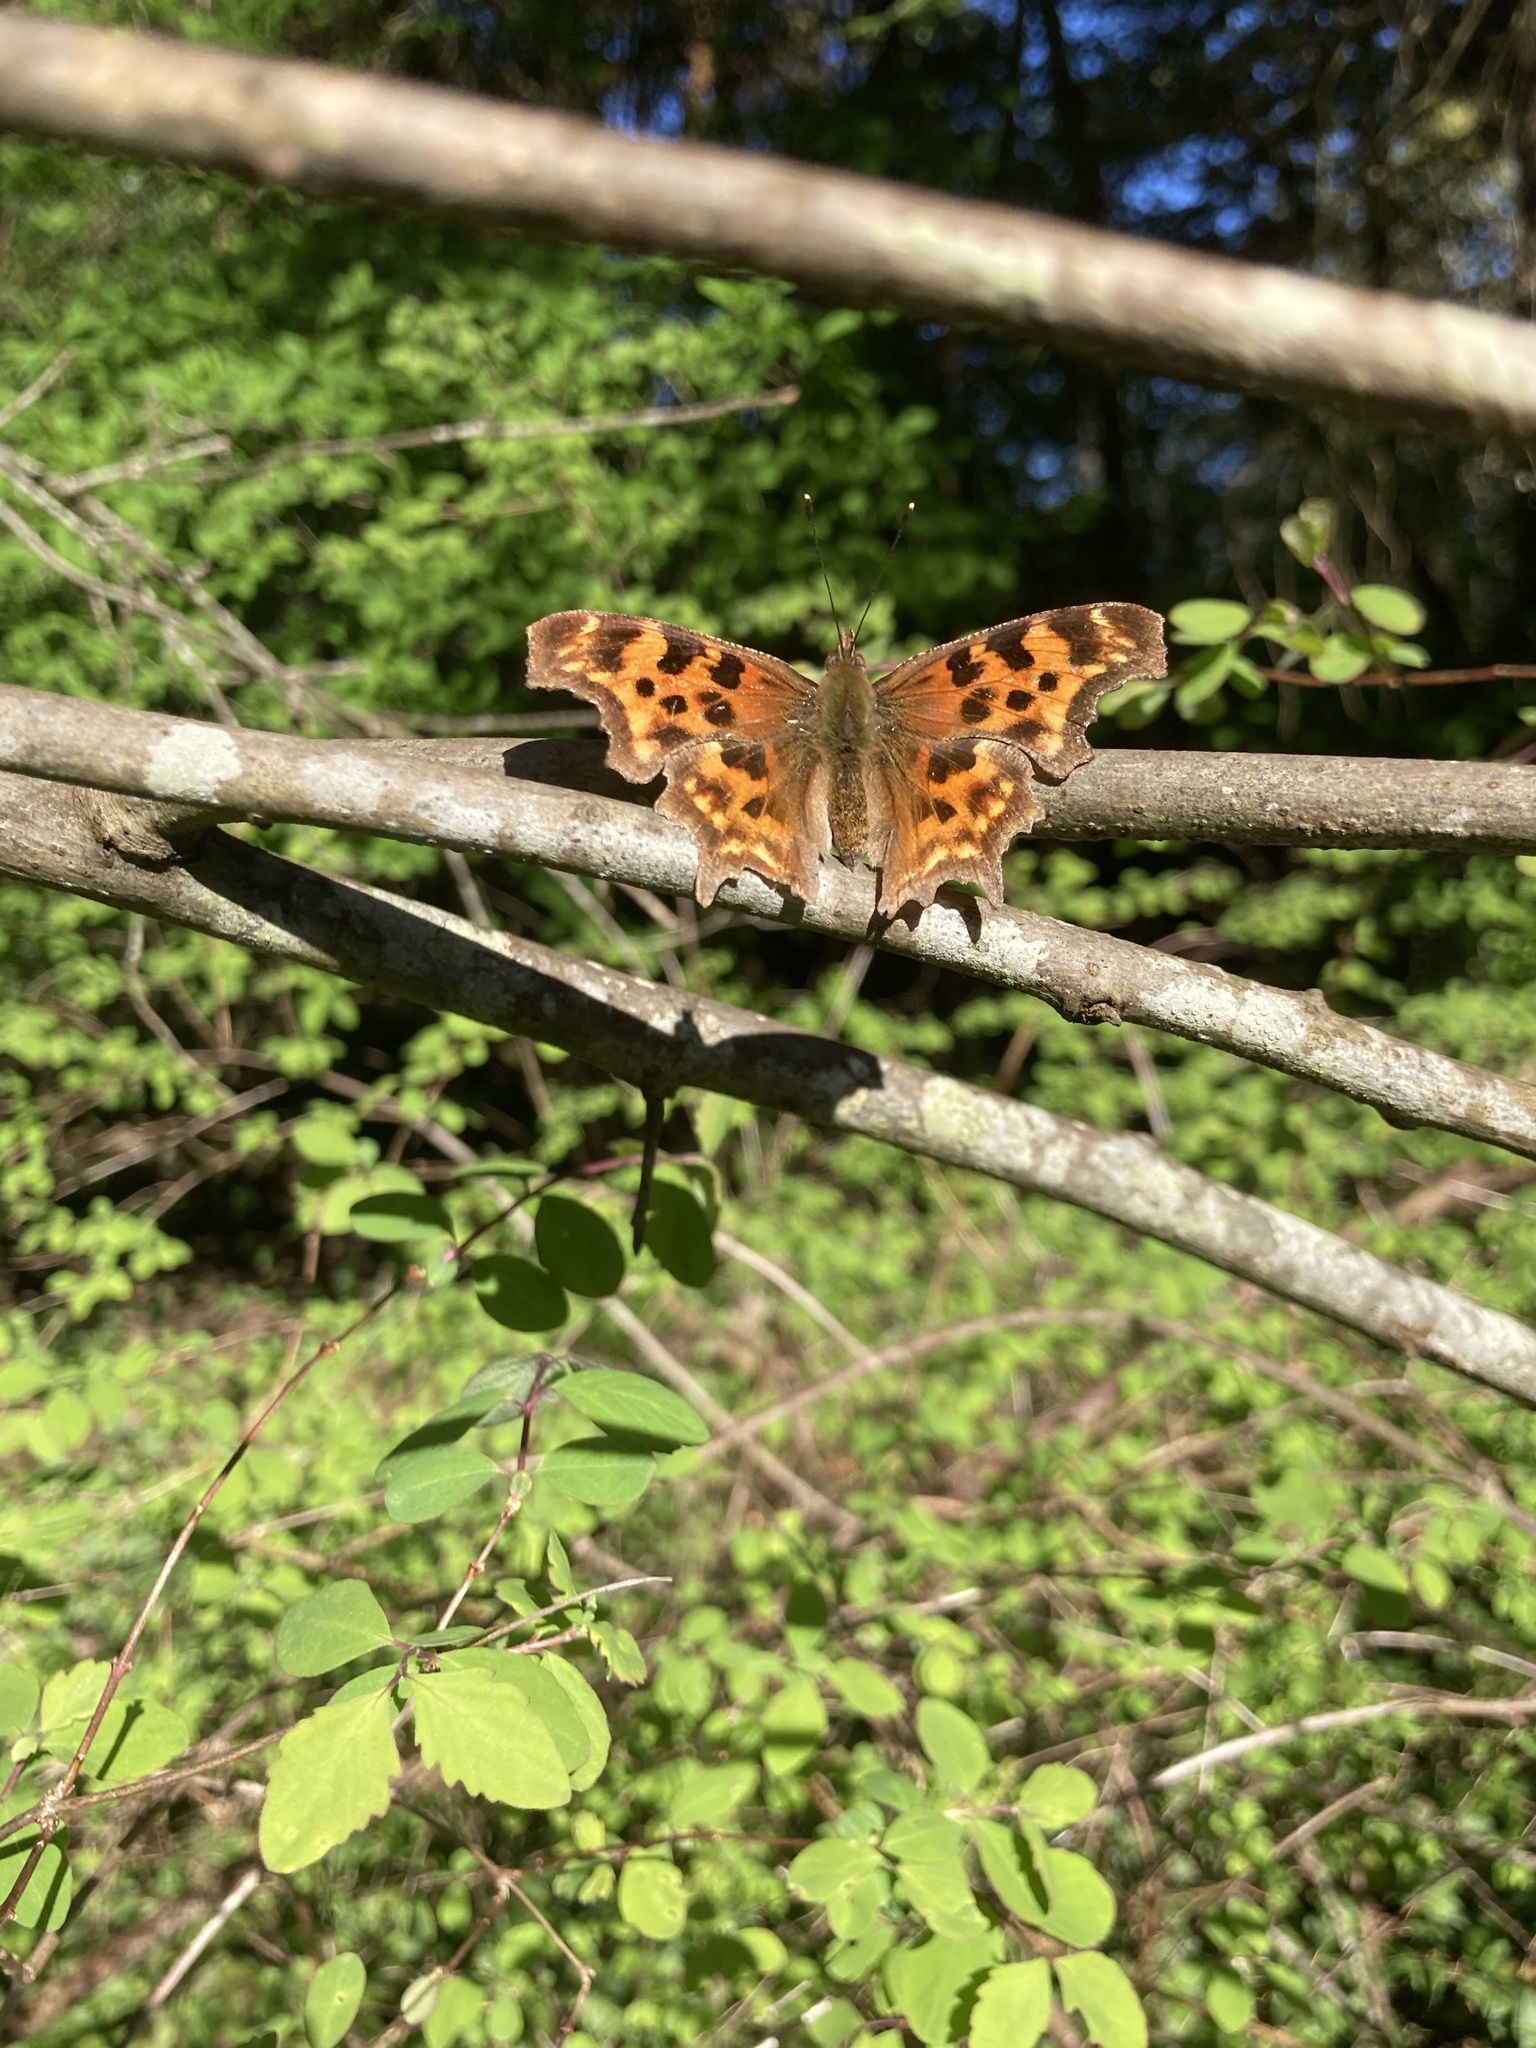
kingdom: Animalia
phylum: Arthropoda
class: Insecta
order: Lepidoptera
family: Nymphalidae
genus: Polygonia
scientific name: Polygonia satyrus
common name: Satyr angle wing
